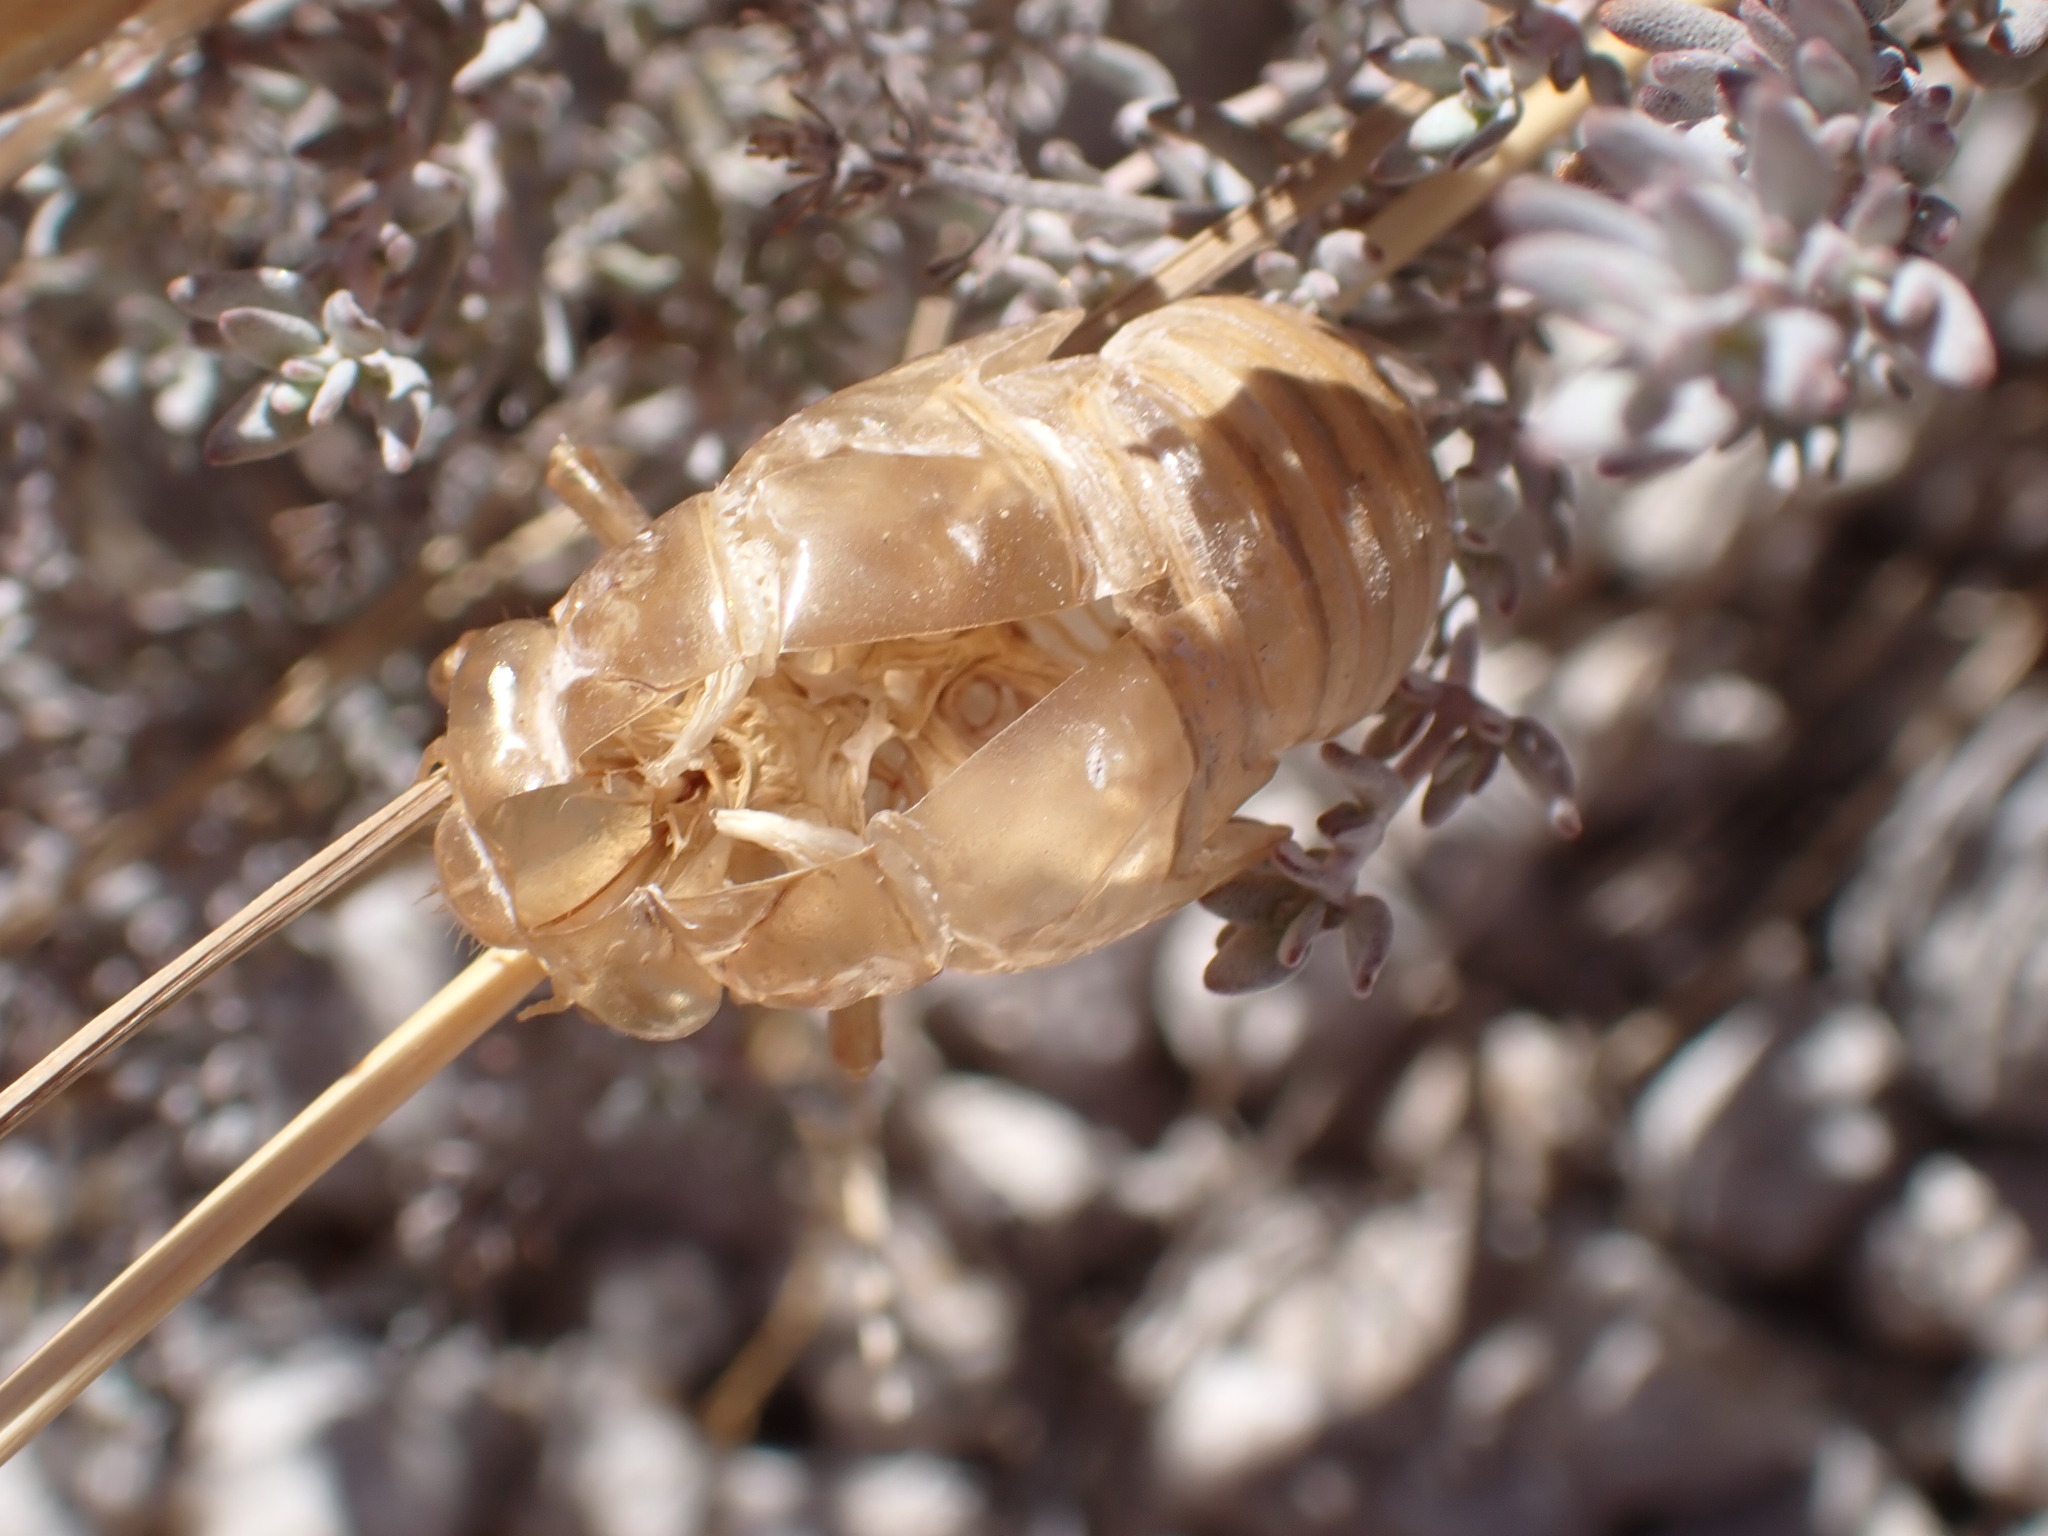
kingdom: Animalia
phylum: Arthropoda
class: Insecta
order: Hemiptera
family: Cicadidae
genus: Lyristes
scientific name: Lyristes plebejus
